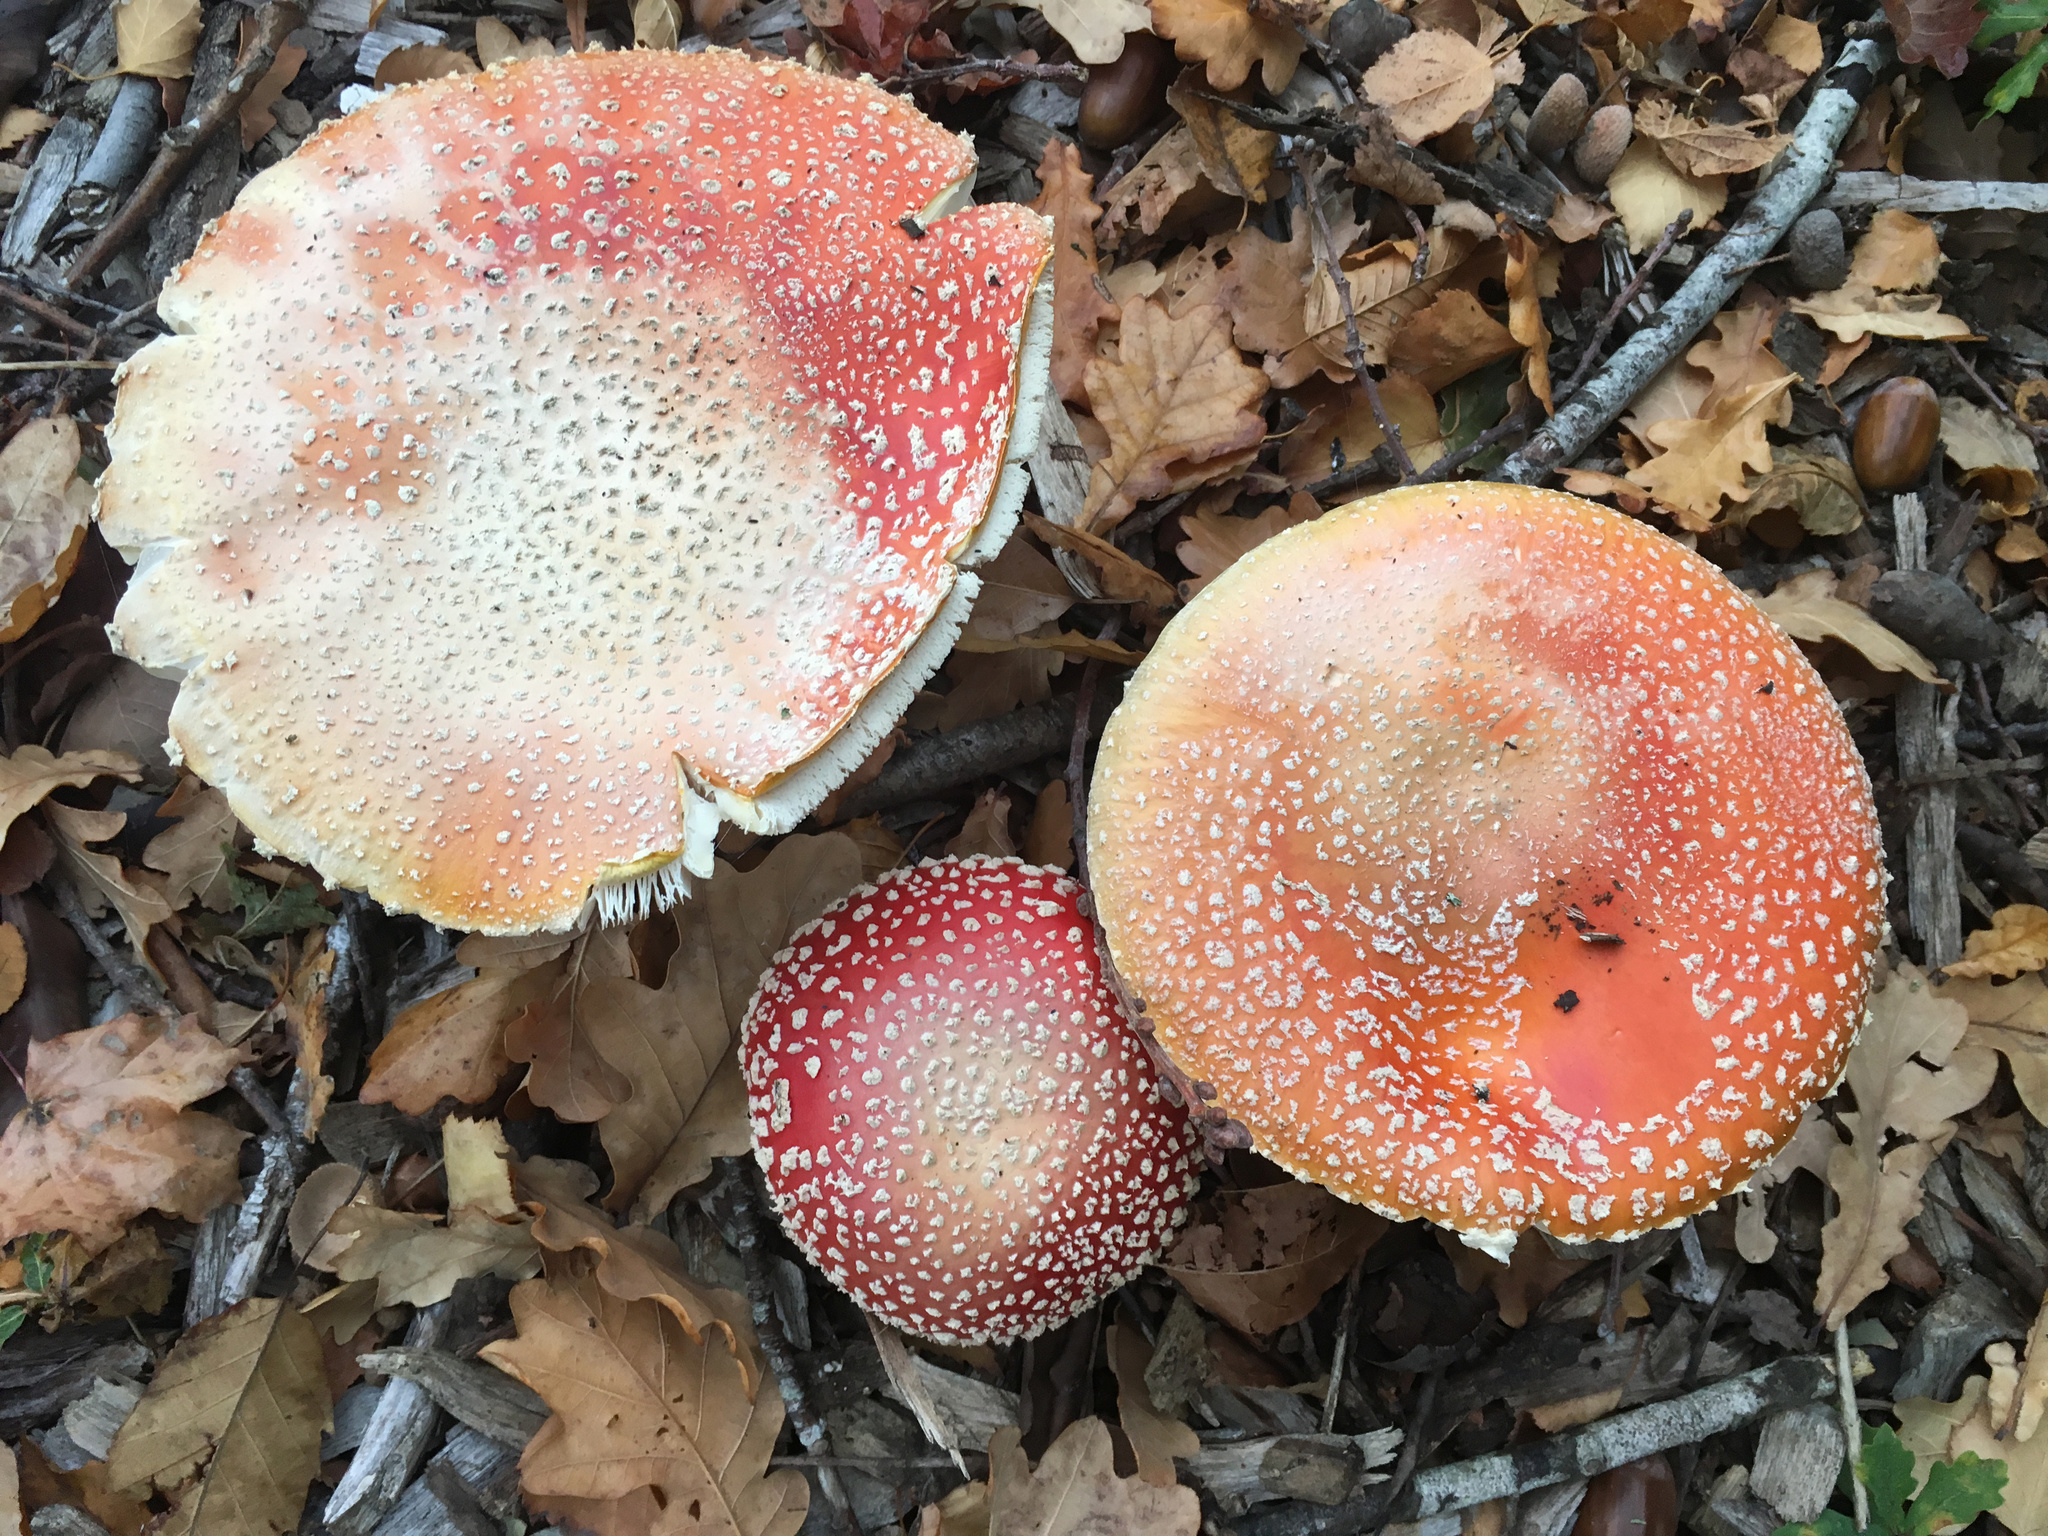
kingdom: Fungi
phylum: Basidiomycota
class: Agaricomycetes
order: Agaricales
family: Amanitaceae
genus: Amanita
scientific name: Amanita muscaria
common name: Fly agaric
